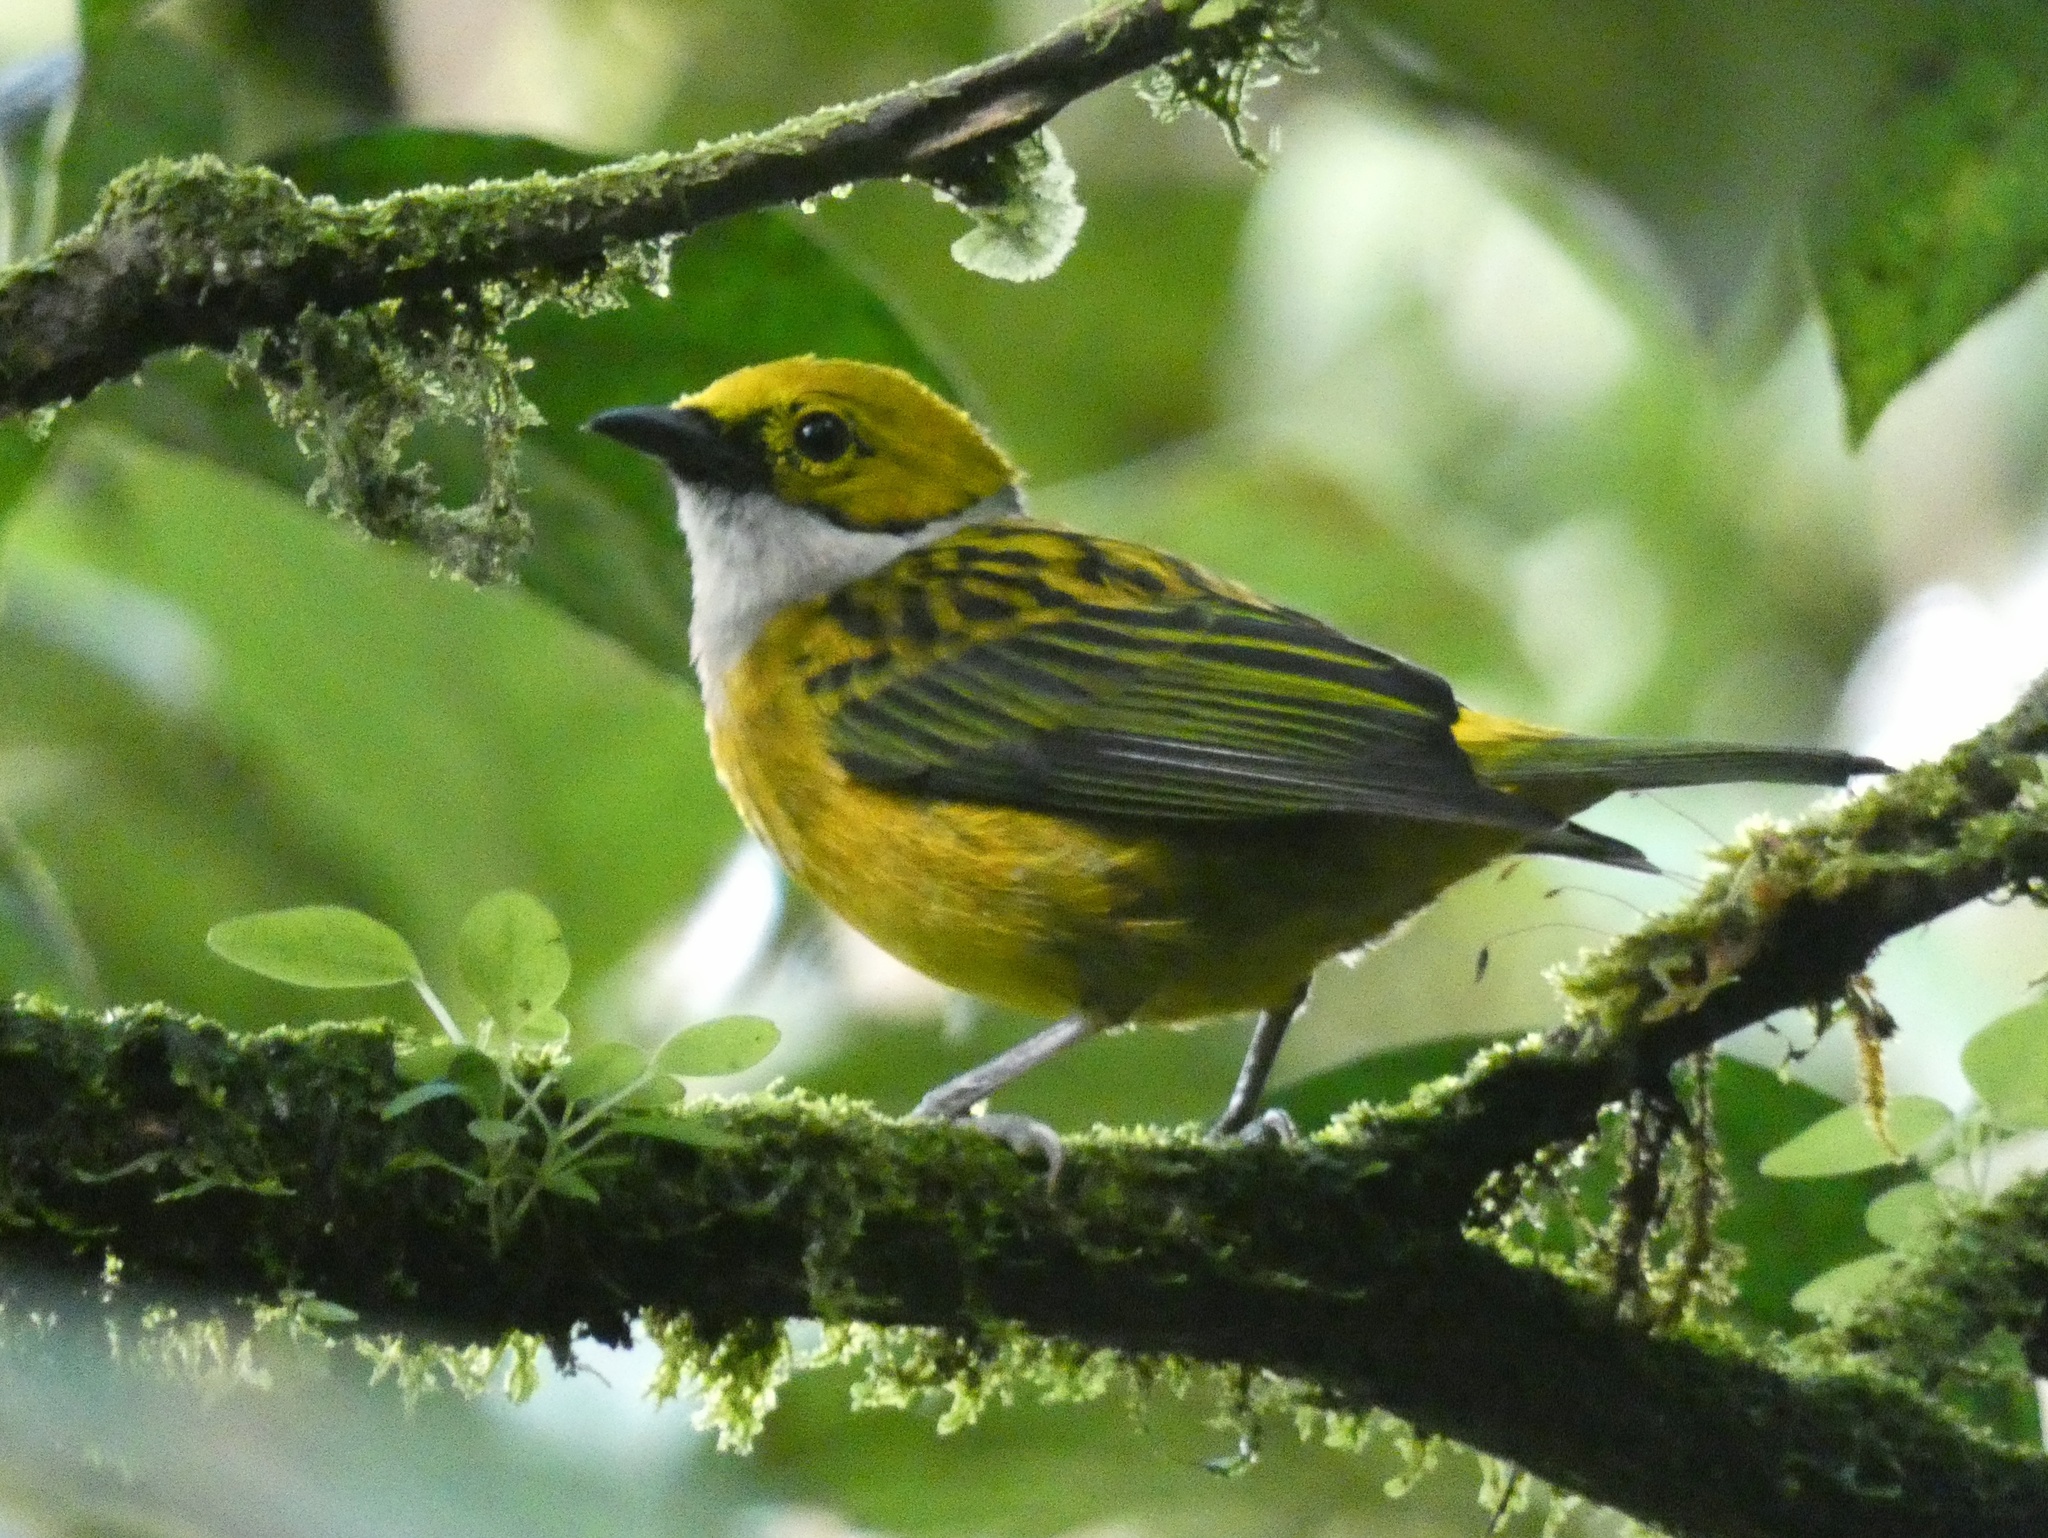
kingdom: Animalia
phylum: Chordata
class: Aves
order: Passeriformes
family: Thraupidae
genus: Tangara
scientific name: Tangara icterocephala
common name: Silver-throated tanager
